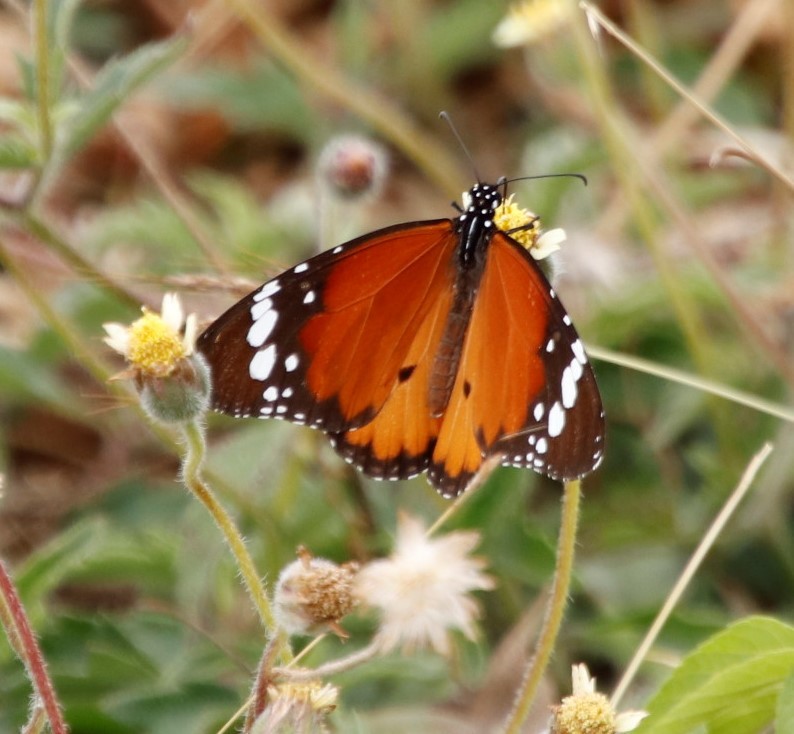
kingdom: Animalia
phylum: Arthropoda
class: Insecta
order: Lepidoptera
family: Nymphalidae
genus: Danaus
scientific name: Danaus chrysippus
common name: Plain tiger
